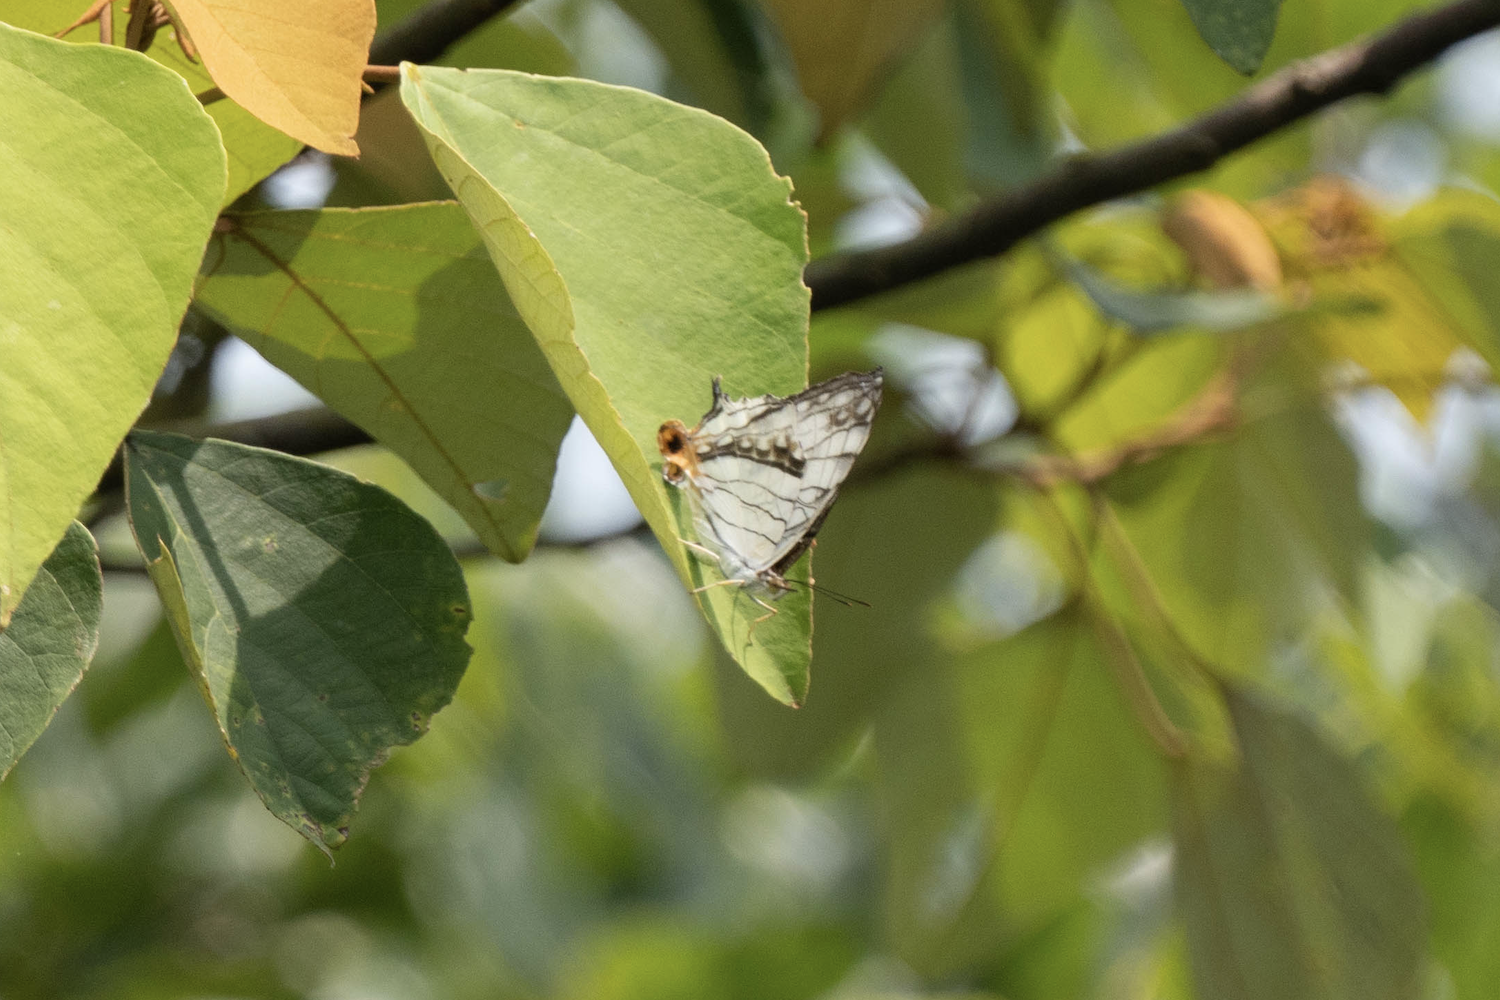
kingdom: Animalia
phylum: Arthropoda
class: Insecta
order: Lepidoptera
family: Nymphalidae
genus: Cyrestis
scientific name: Cyrestis thyodamas
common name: Common mapwing
